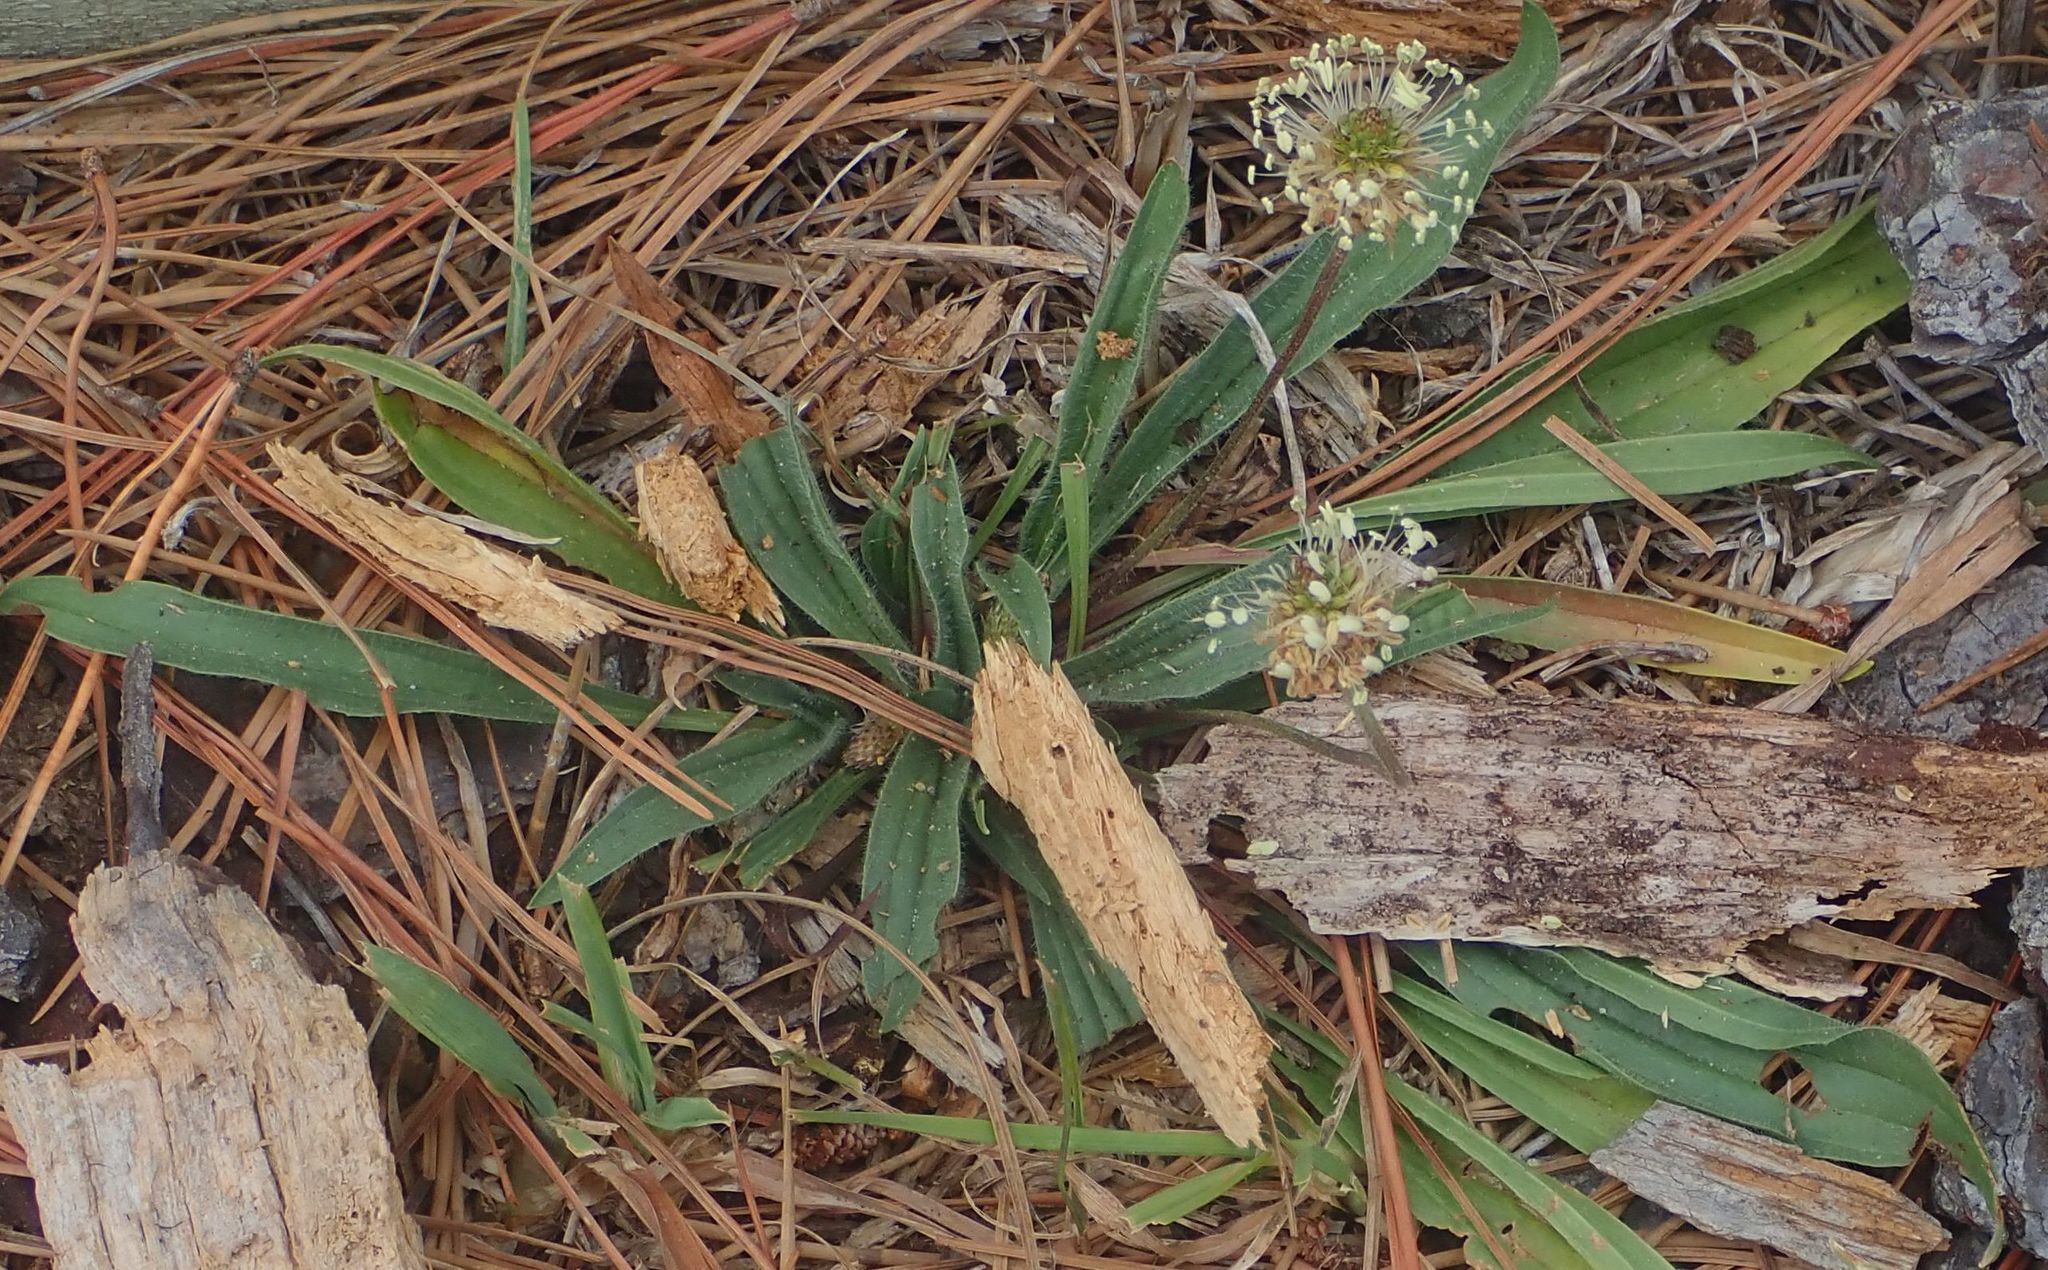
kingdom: Plantae
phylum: Tracheophyta
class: Magnoliopsida
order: Lamiales
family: Plantaginaceae
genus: Plantago
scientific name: Plantago lanceolata
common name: Ribwort plantain
